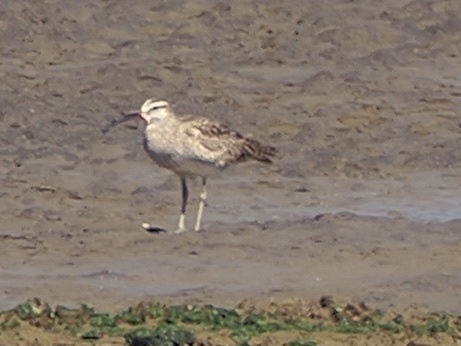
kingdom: Animalia
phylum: Chordata
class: Aves
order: Charadriiformes
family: Scolopacidae
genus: Numenius
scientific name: Numenius phaeopus
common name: Whimbrel
